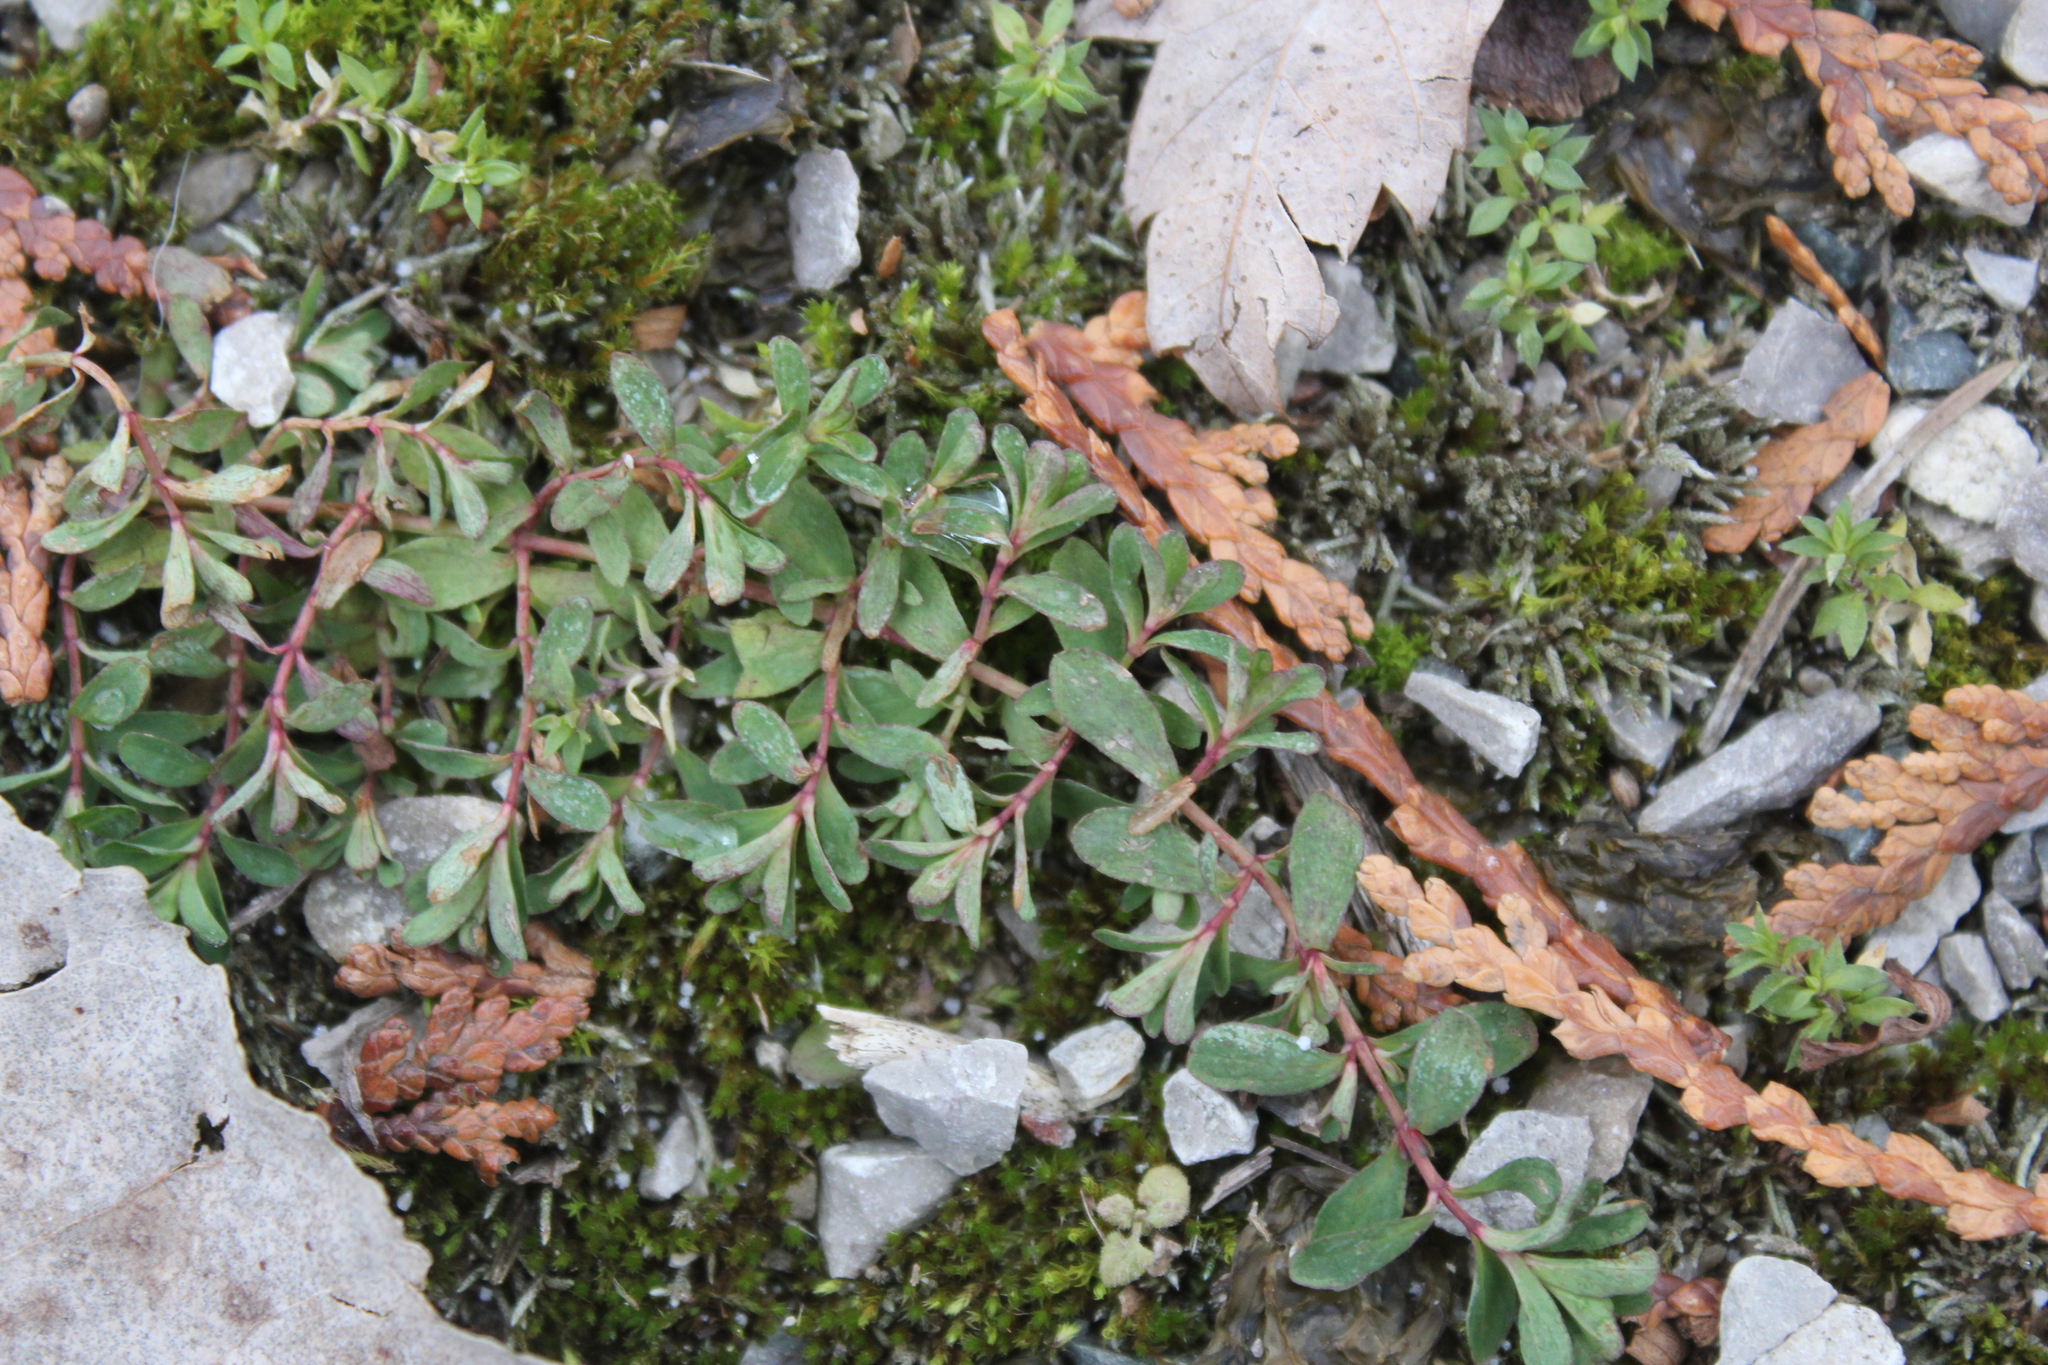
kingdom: Plantae
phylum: Tracheophyta
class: Magnoliopsida
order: Malpighiales
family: Hypericaceae
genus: Hypericum
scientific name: Hypericum perforatum
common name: Common st. johnswort
